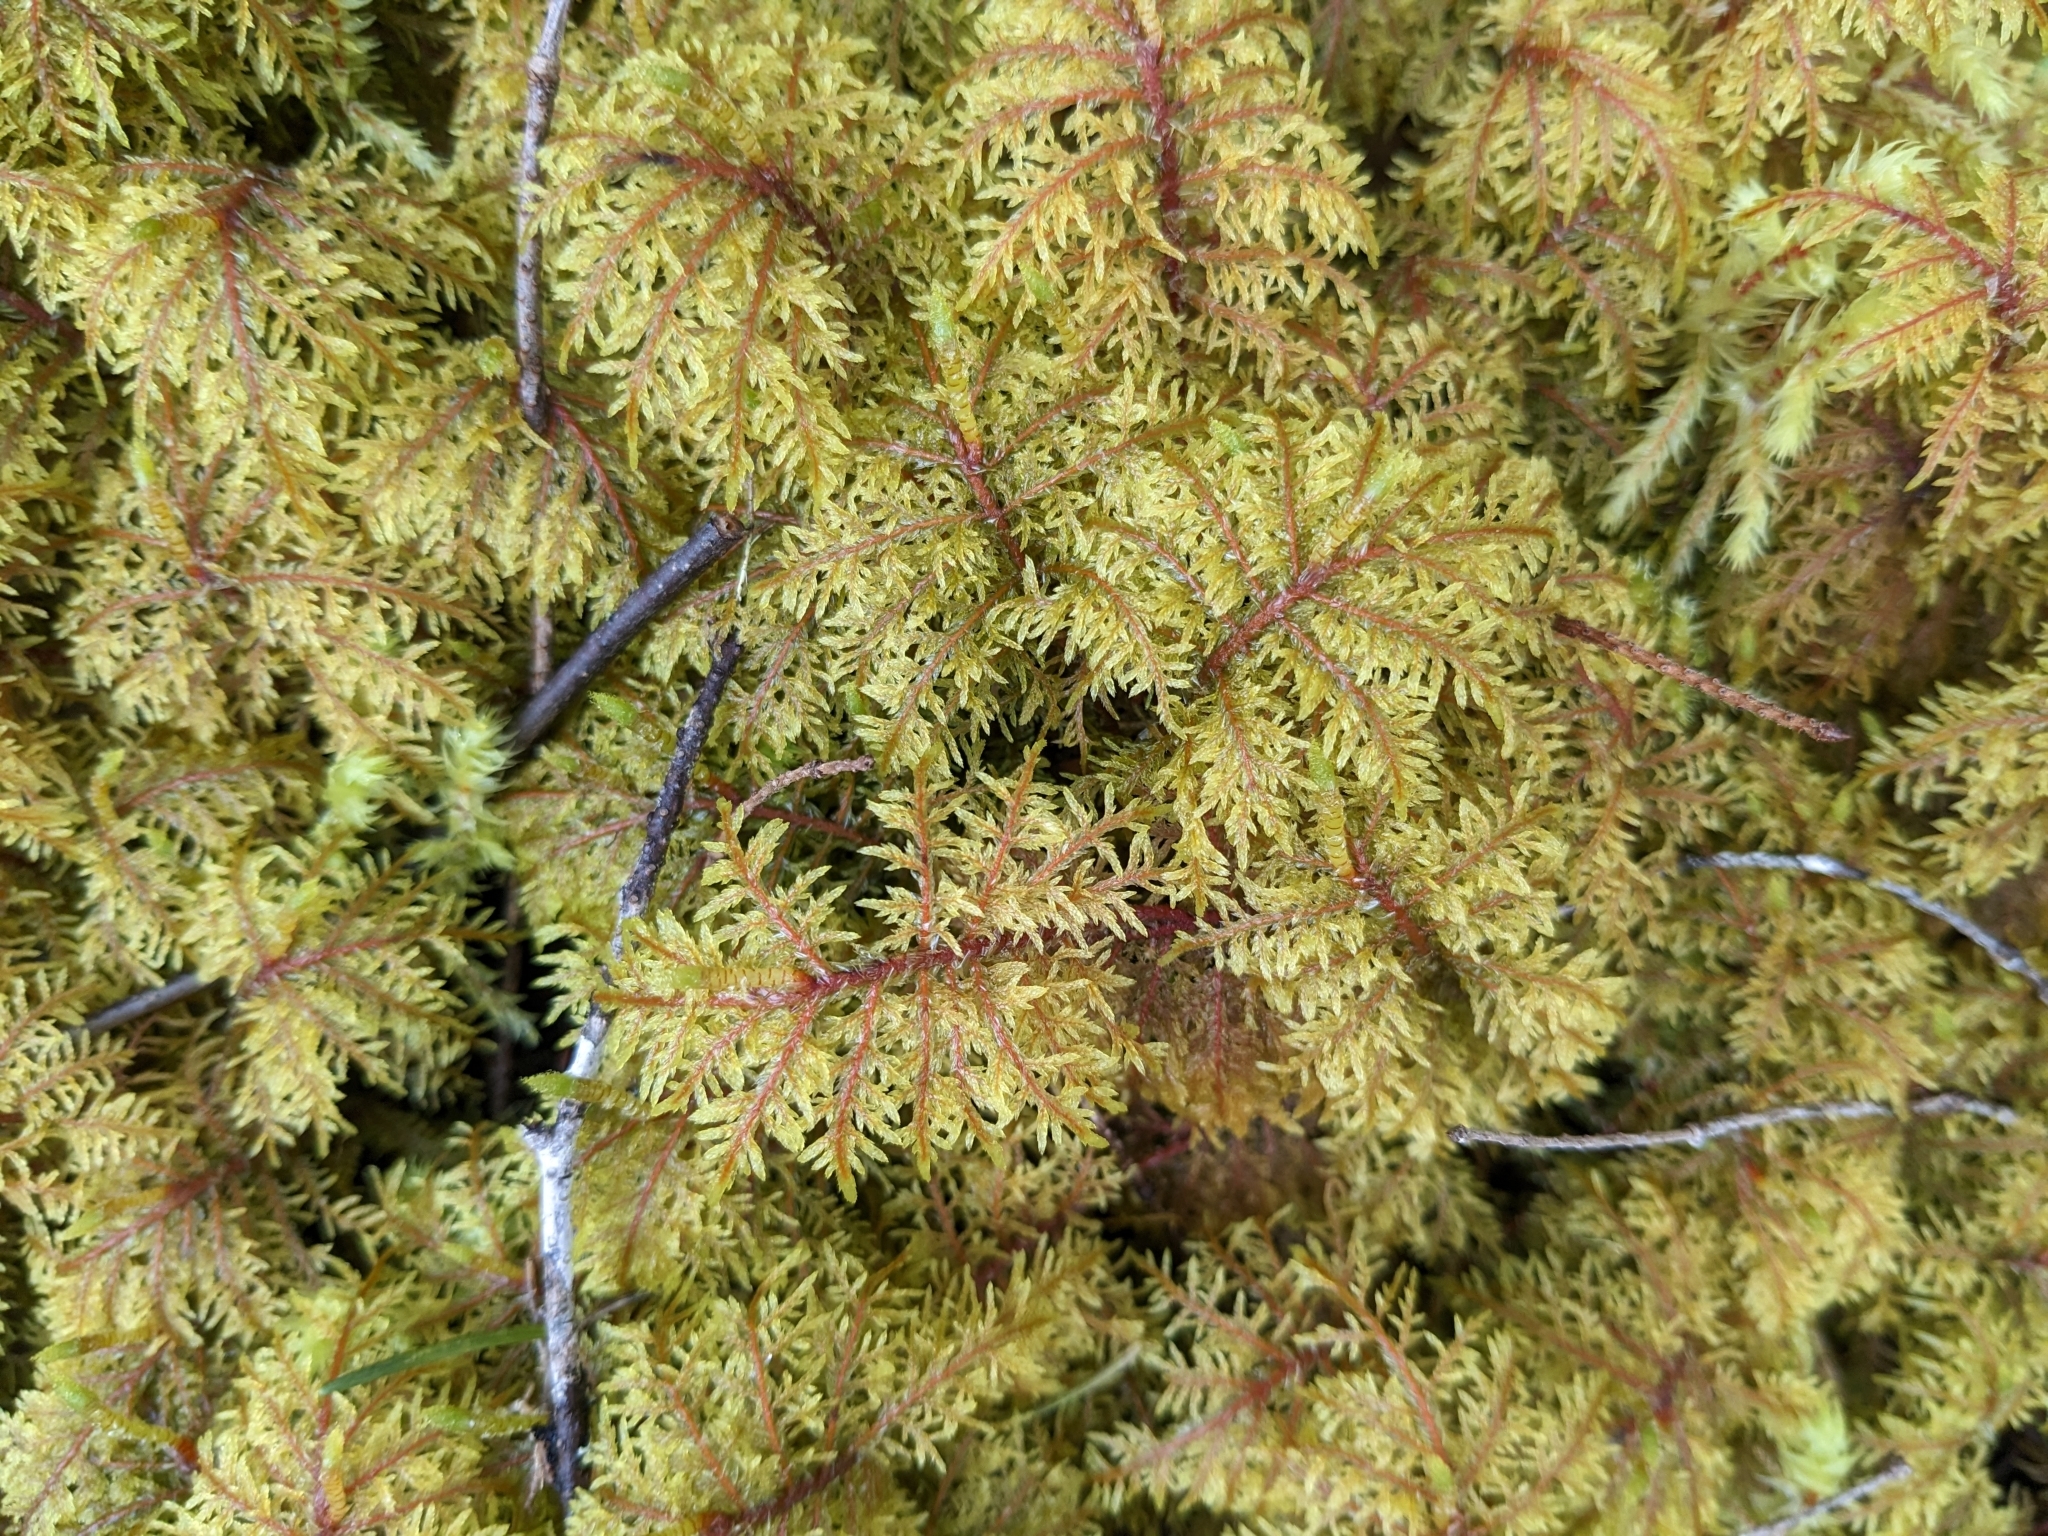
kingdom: Plantae
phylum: Bryophyta
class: Bryopsida
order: Hypnales
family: Hylocomiaceae
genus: Hylocomium
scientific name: Hylocomium splendens
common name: Stairstep moss
